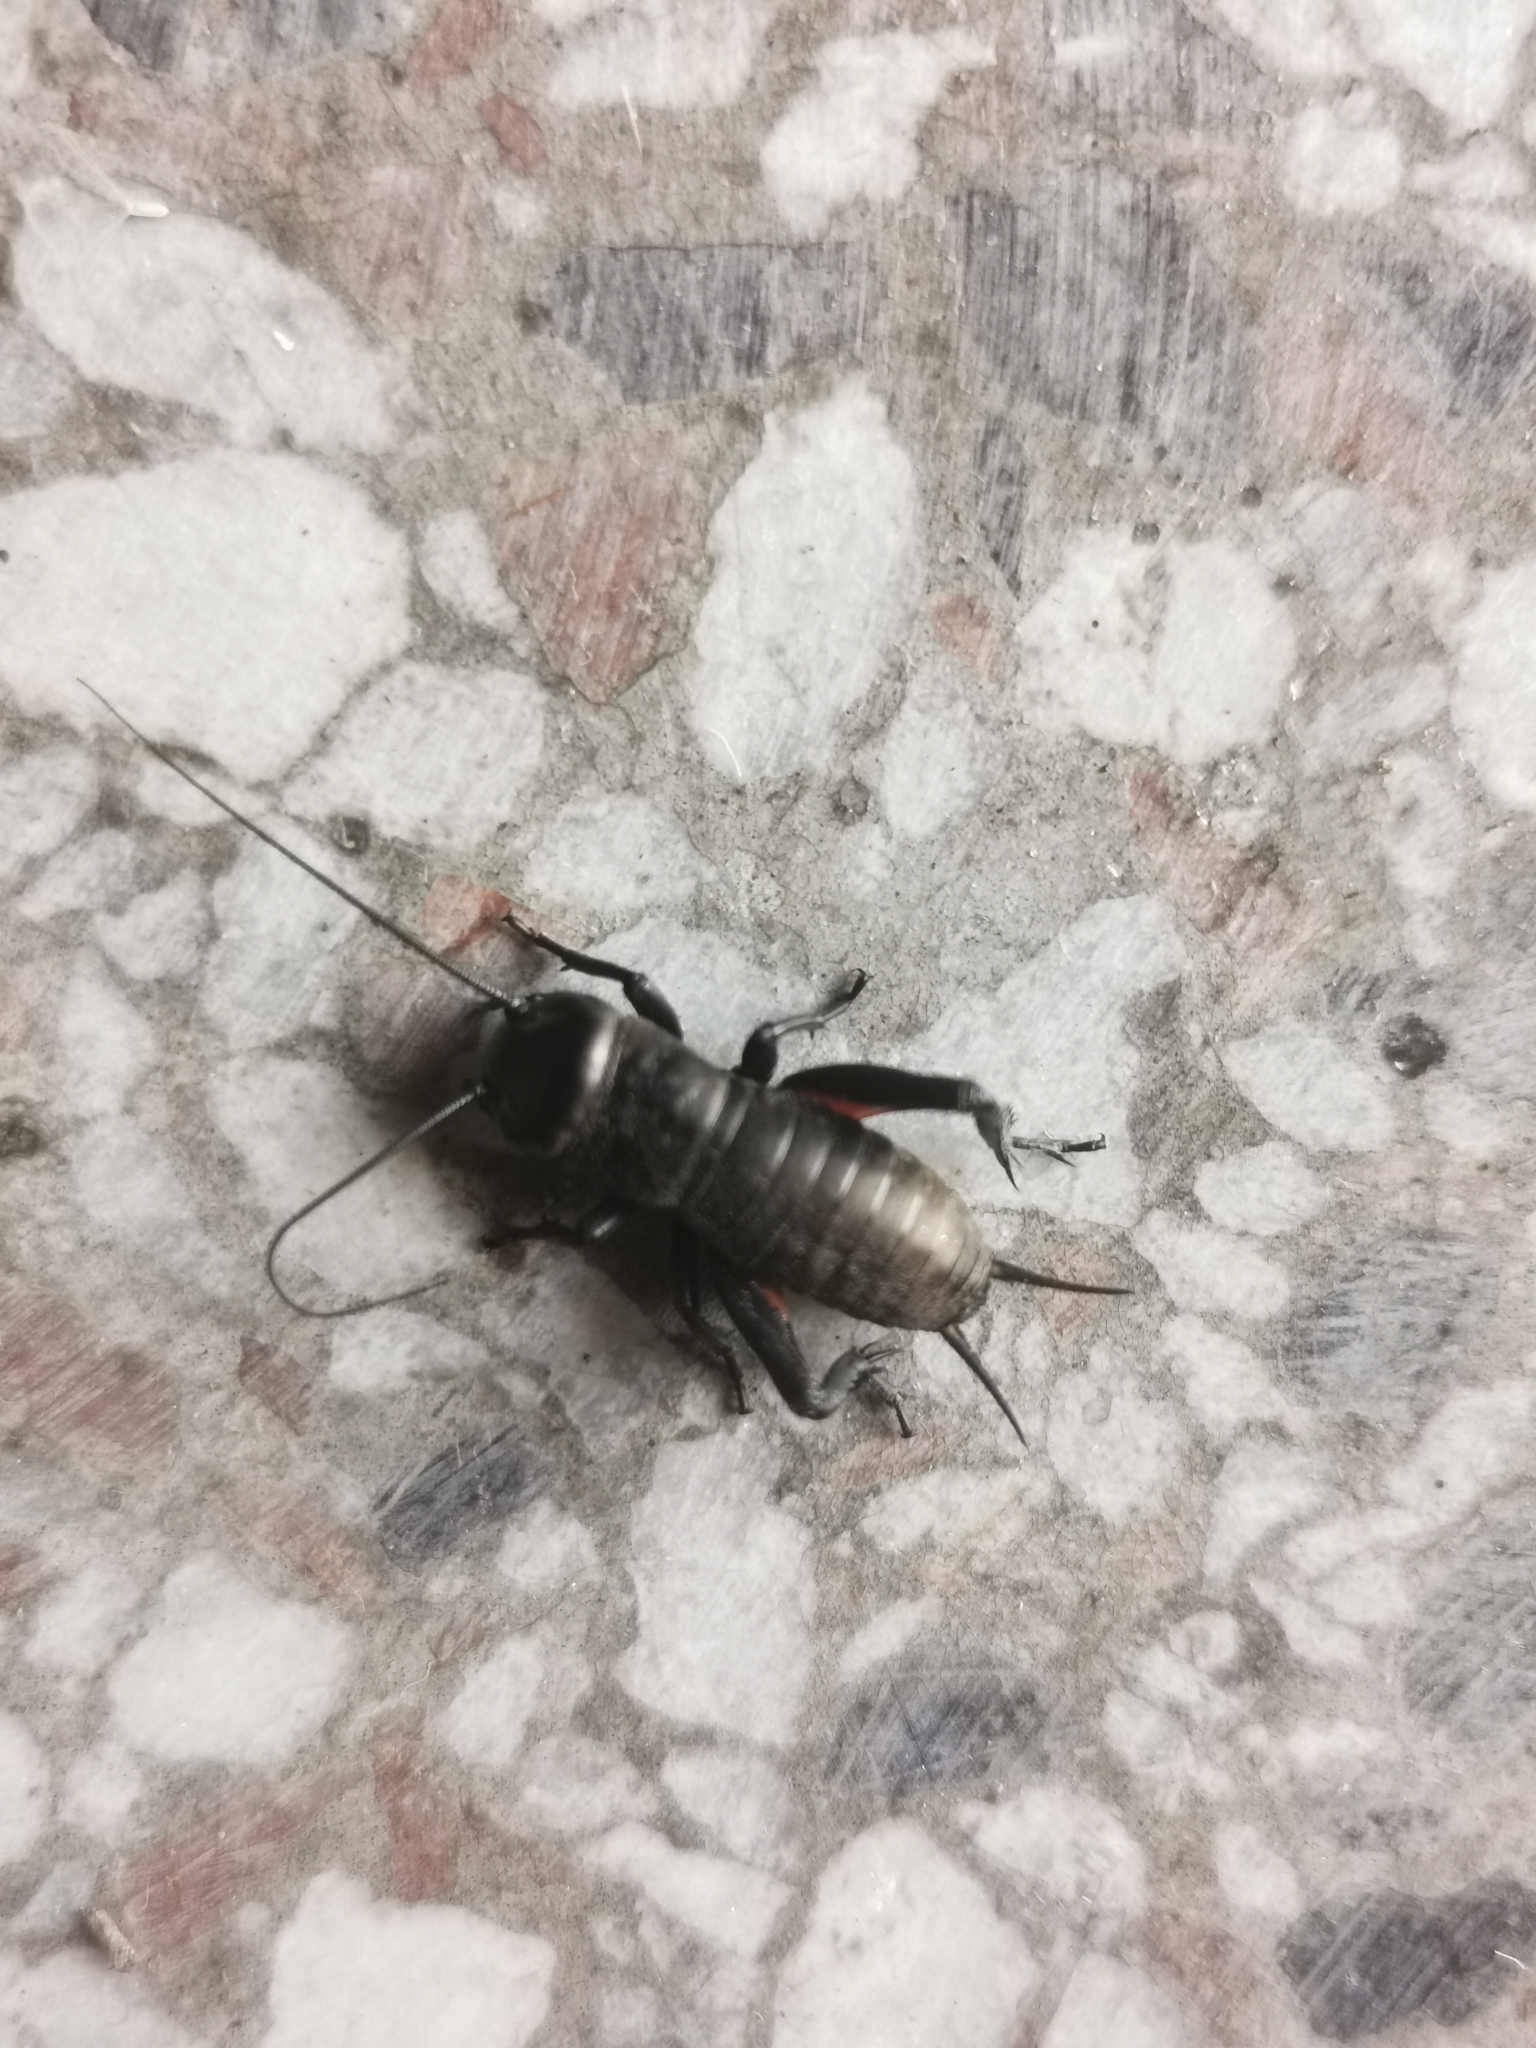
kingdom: Animalia
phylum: Arthropoda
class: Insecta
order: Orthoptera
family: Gryllidae
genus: Gryllus
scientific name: Gryllus campestris
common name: Field cricket
